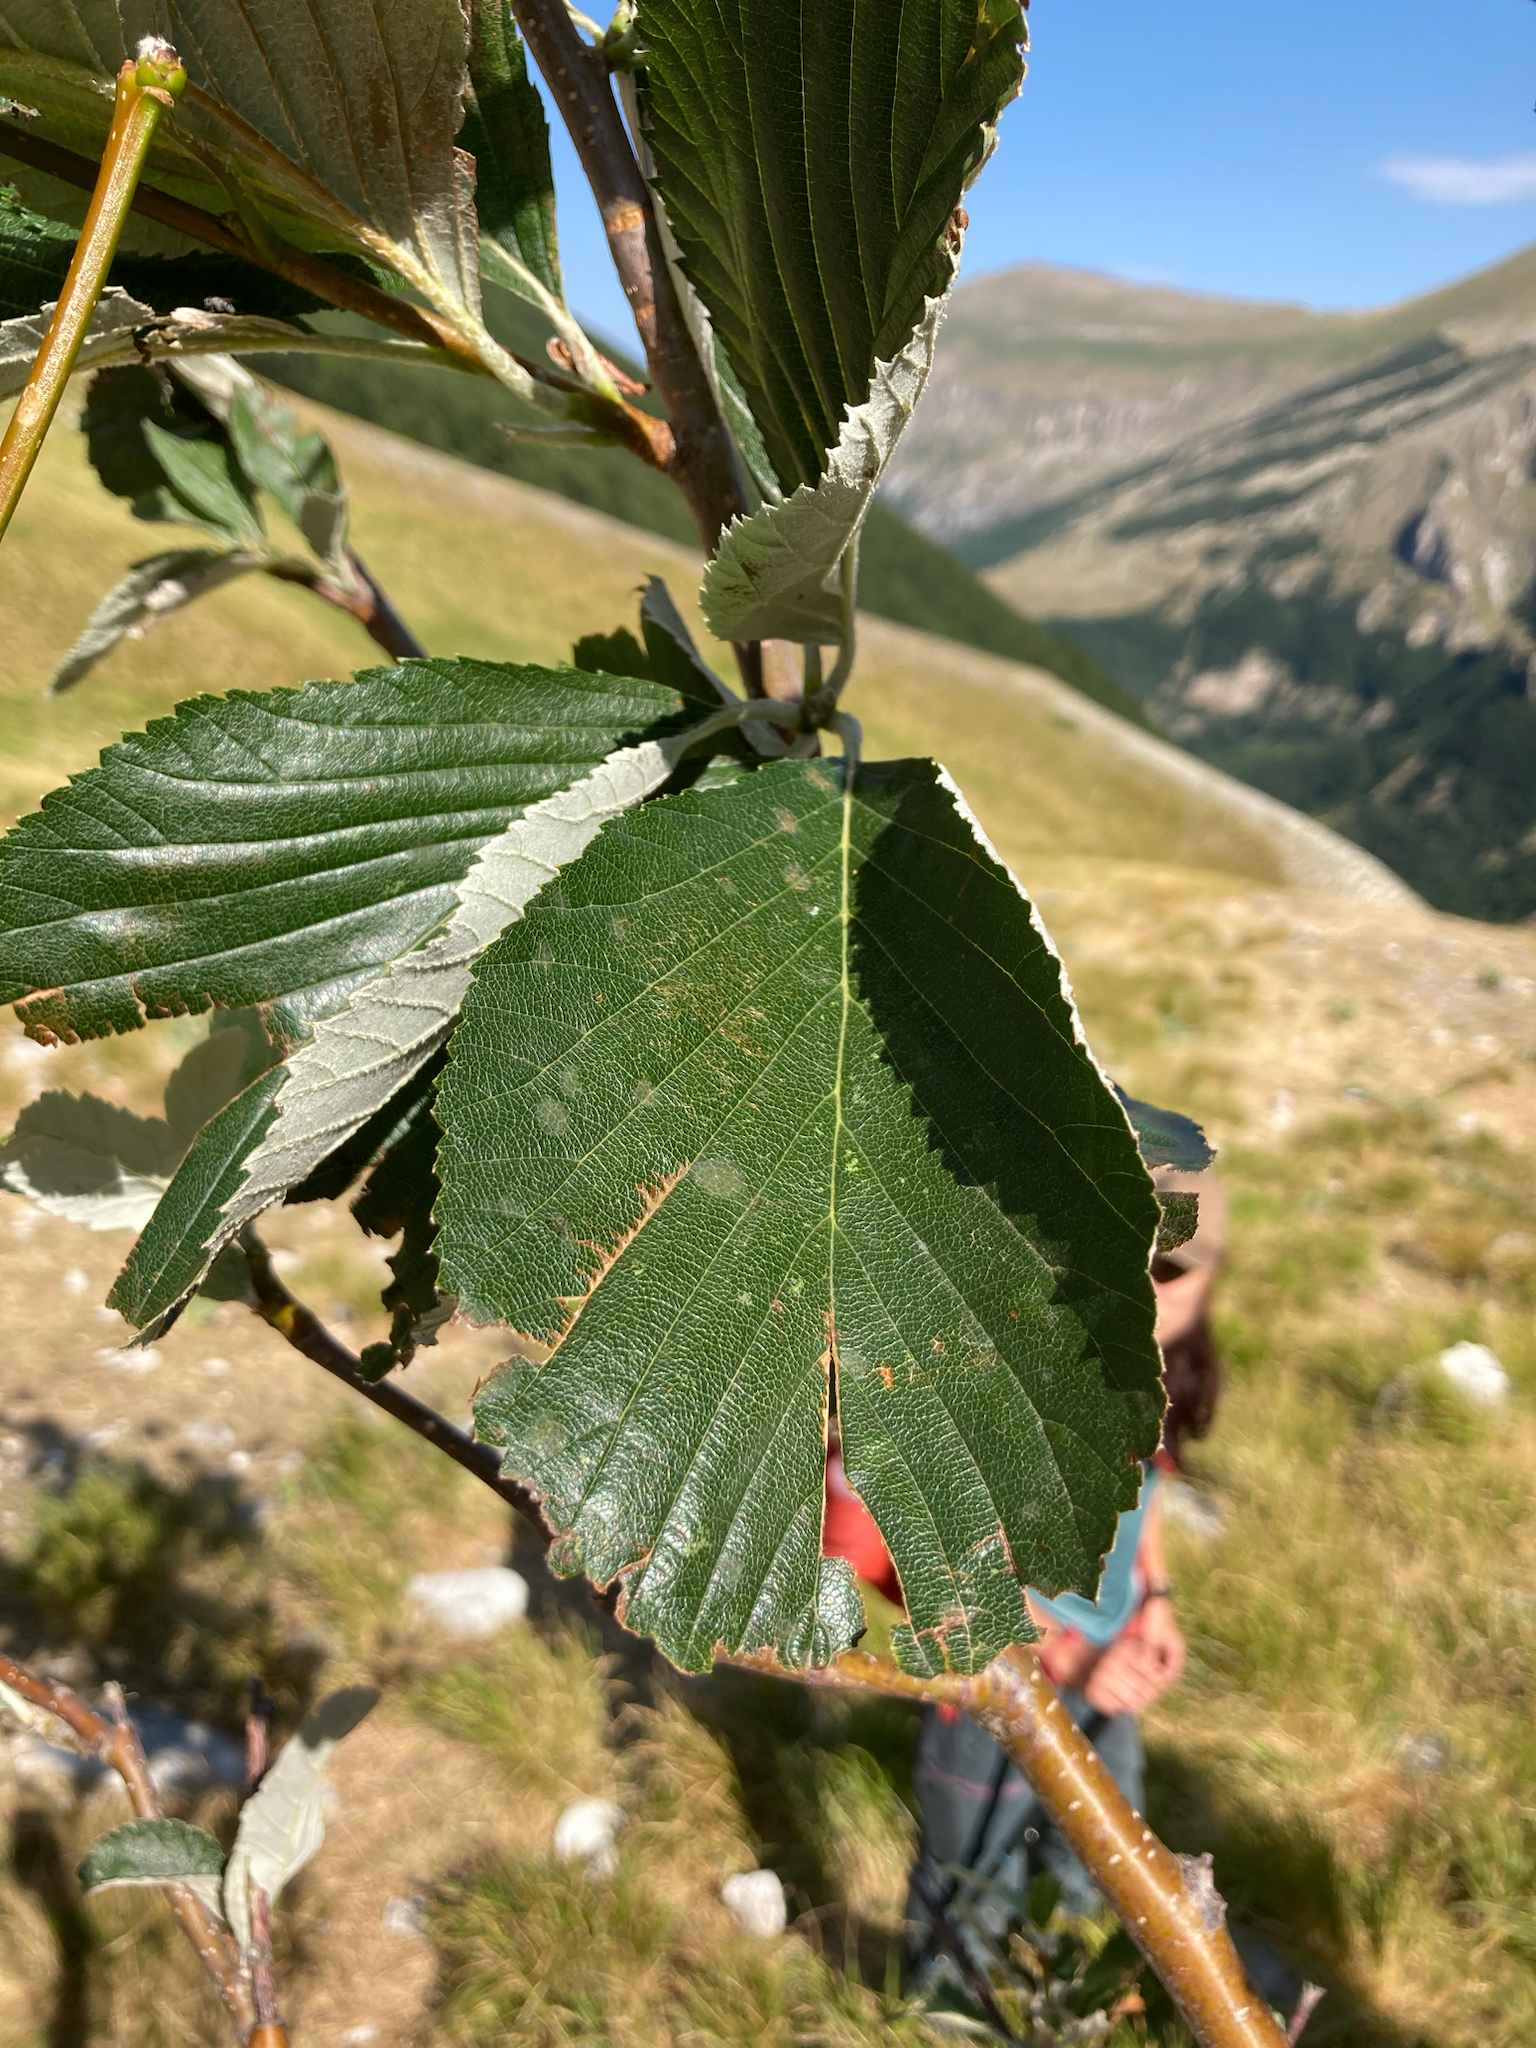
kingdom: Plantae
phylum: Tracheophyta
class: Magnoliopsida
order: Rosales
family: Rosaceae
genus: Aria
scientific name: Aria edulis
